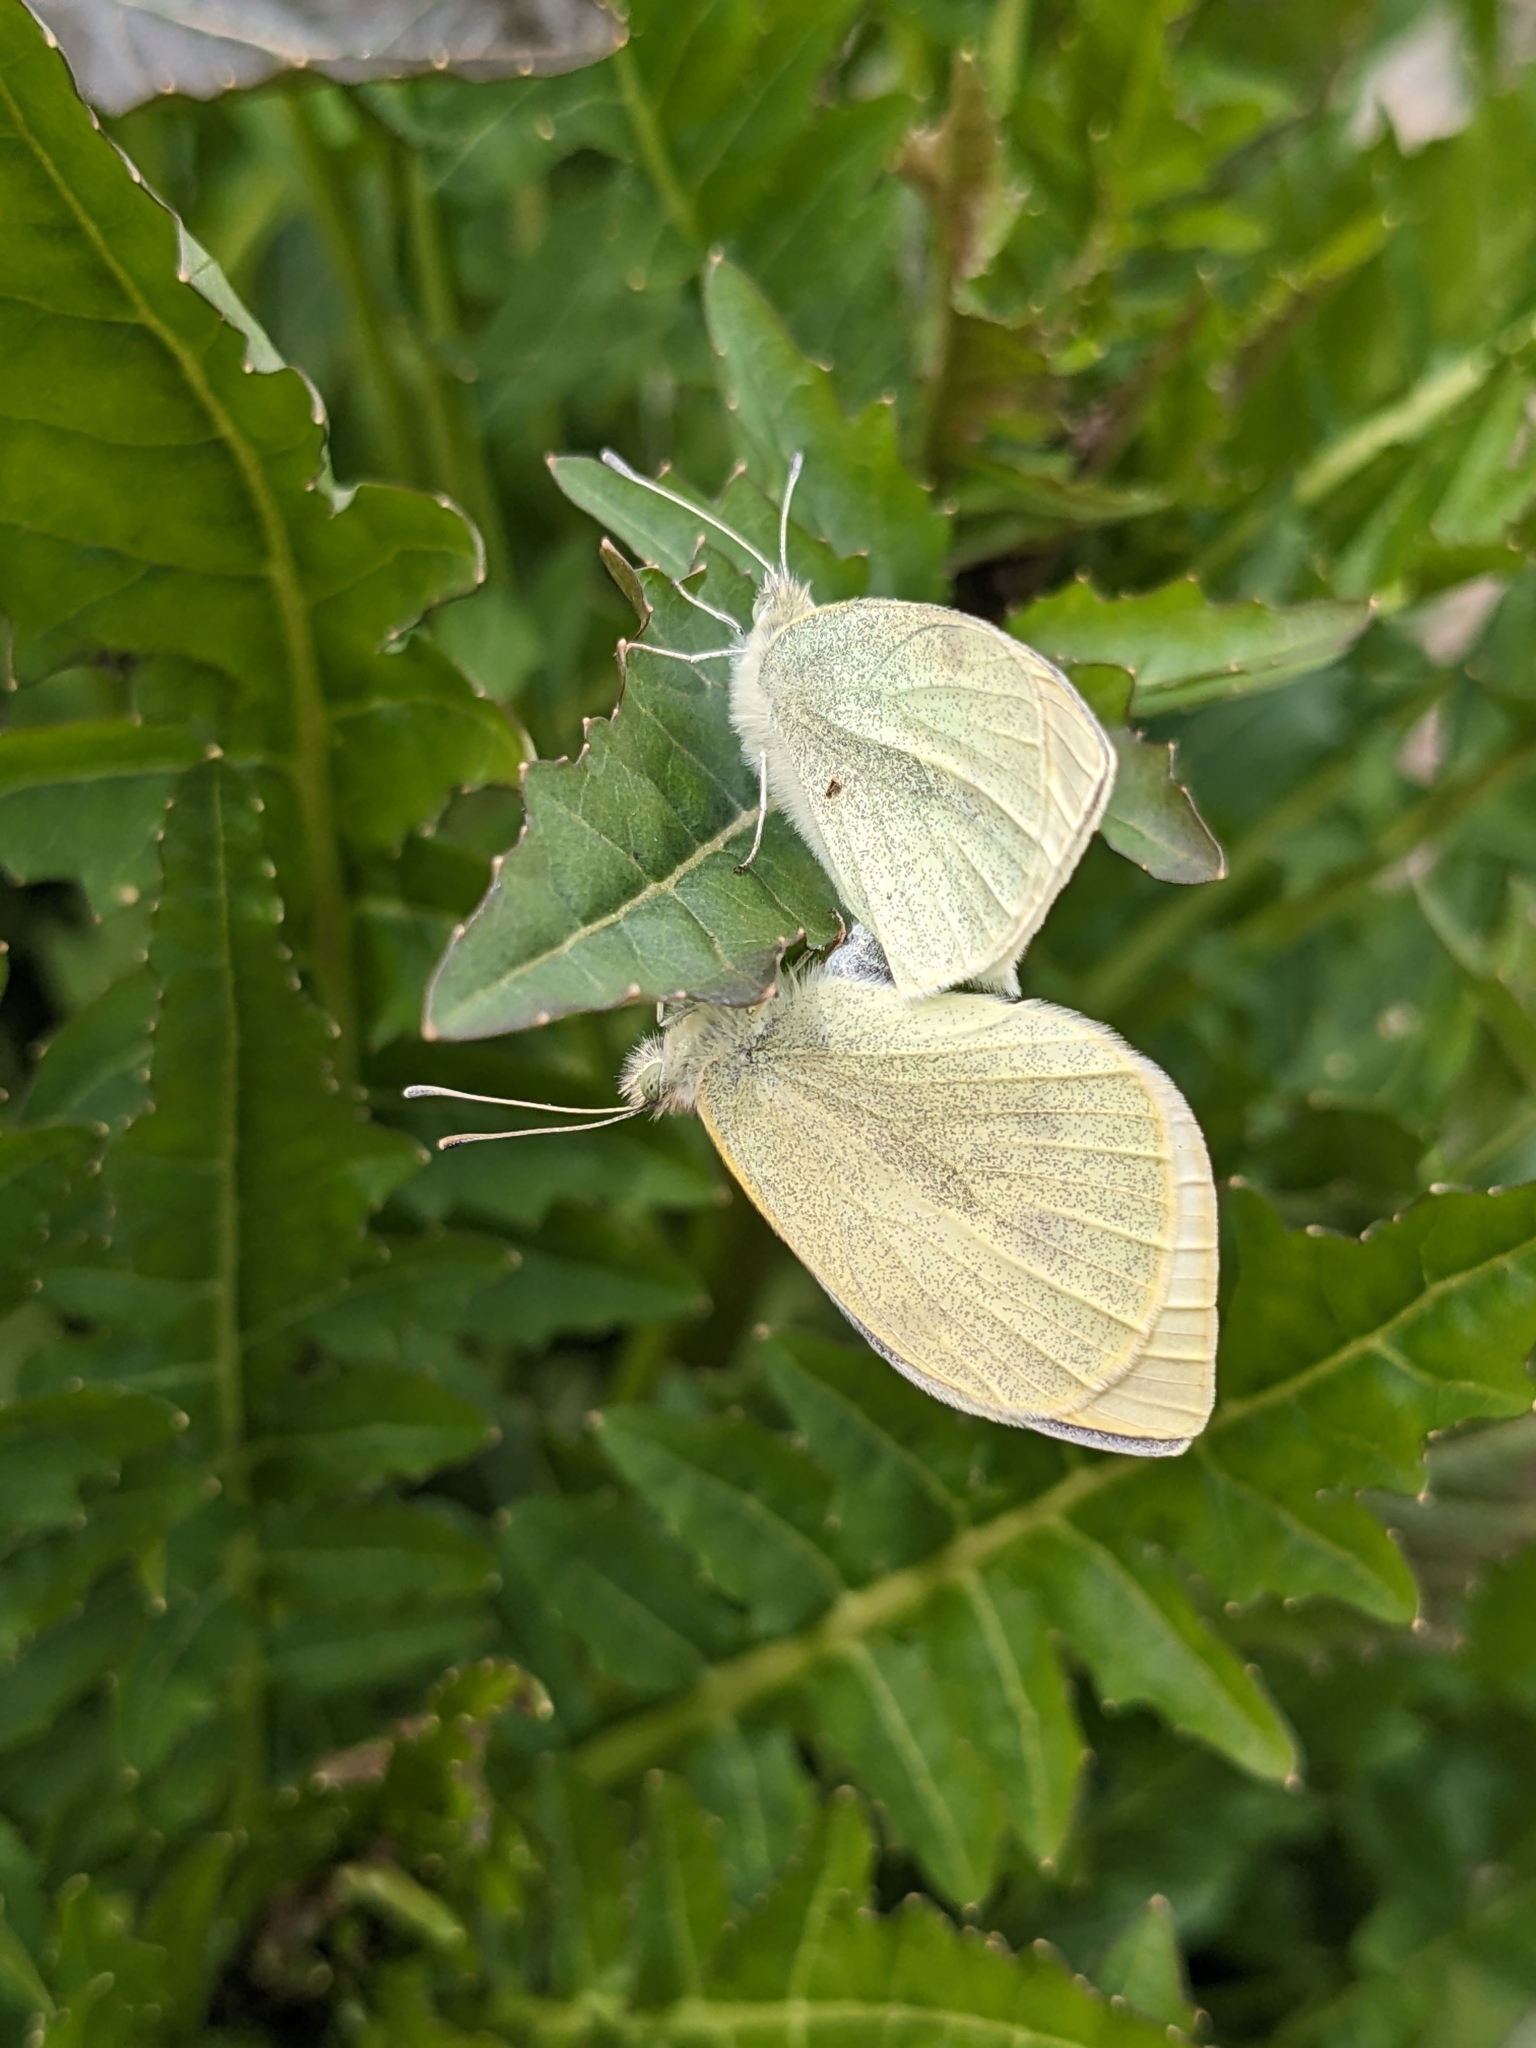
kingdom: Animalia
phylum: Arthropoda
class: Insecta
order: Lepidoptera
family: Pieridae
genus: Pieris
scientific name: Pieris rapae
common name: Small white
